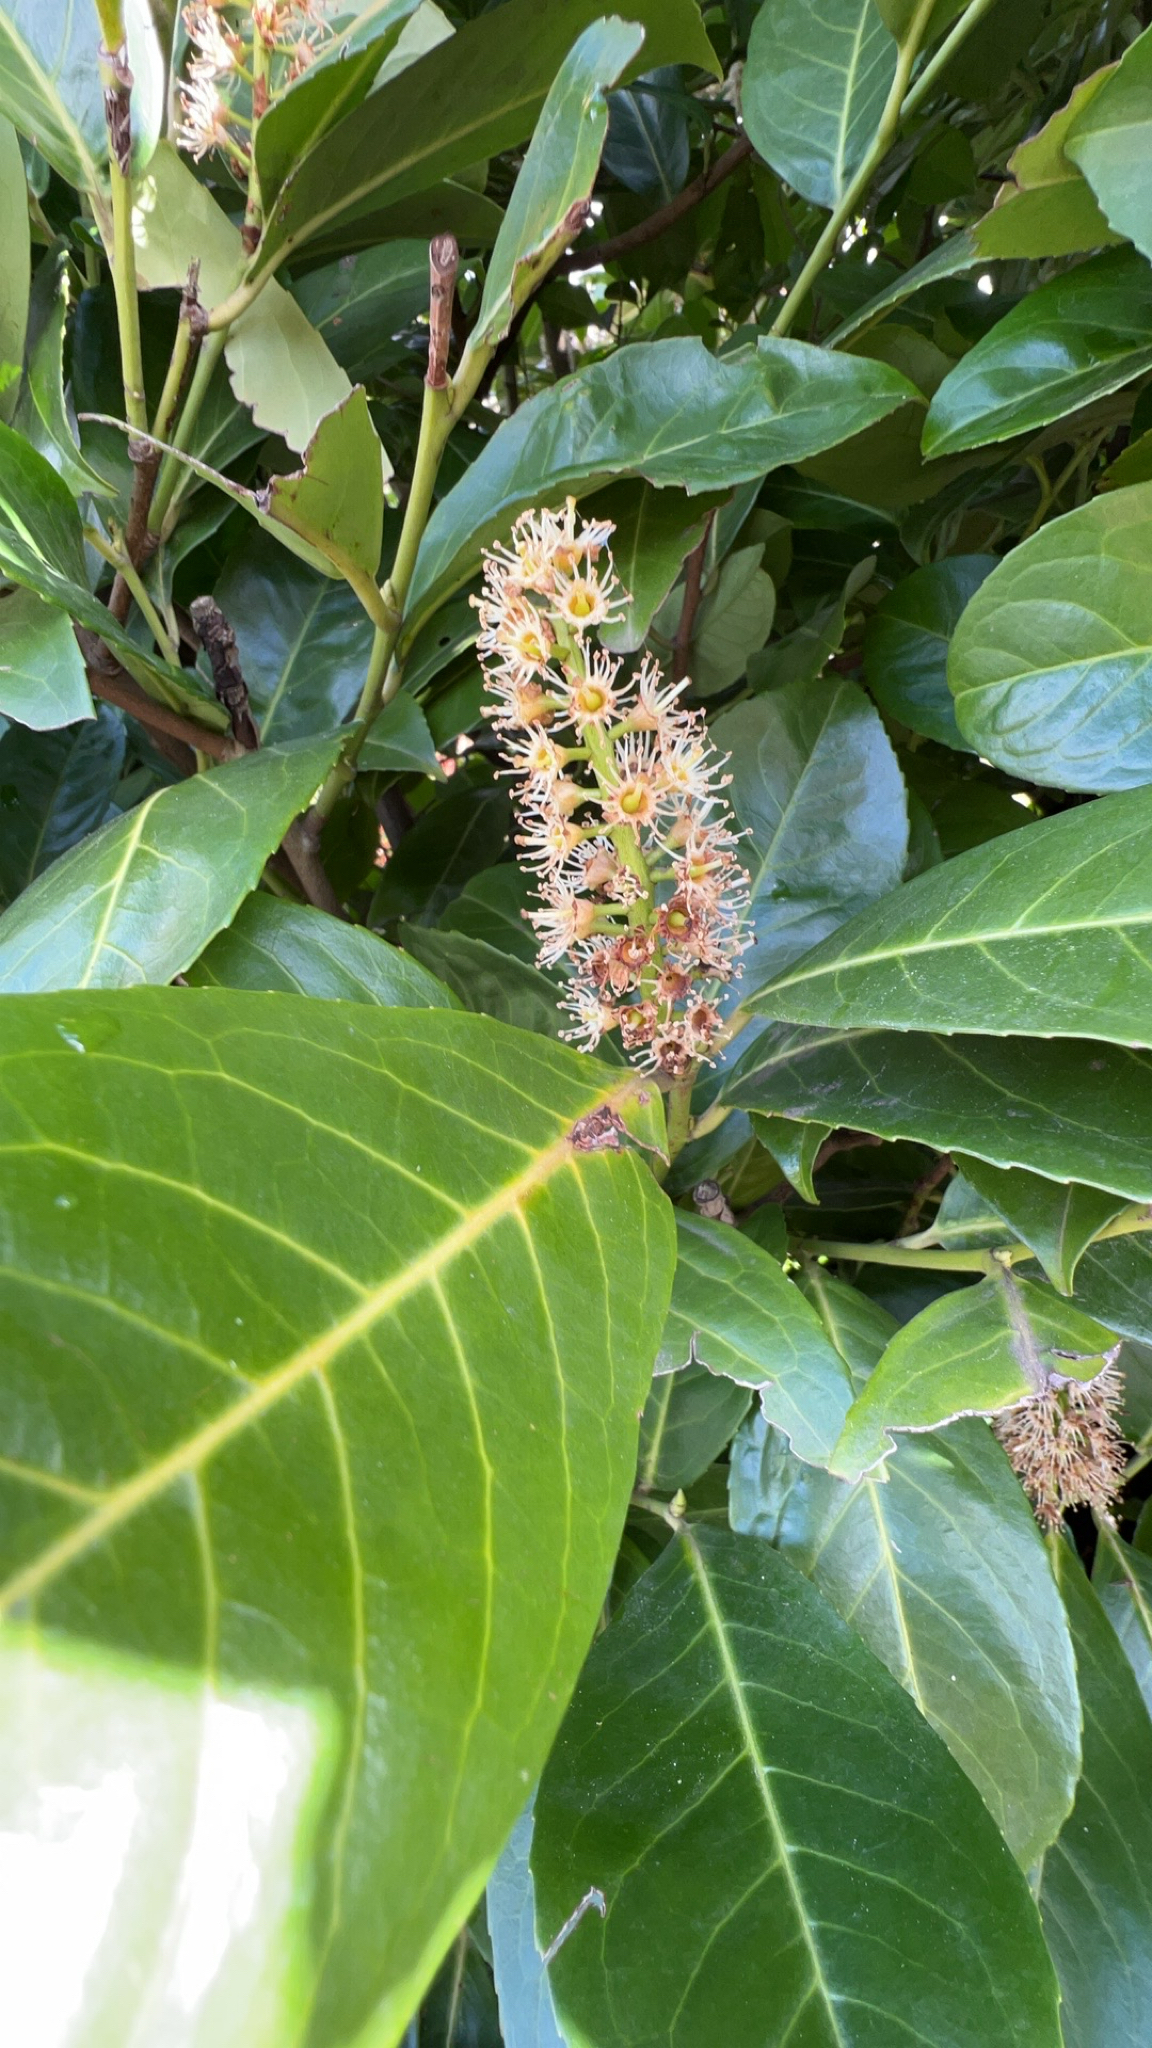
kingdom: Plantae
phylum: Tracheophyta
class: Magnoliopsida
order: Rosales
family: Rosaceae
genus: Prunus
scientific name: Prunus laurocerasus
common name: Cherry laurel
